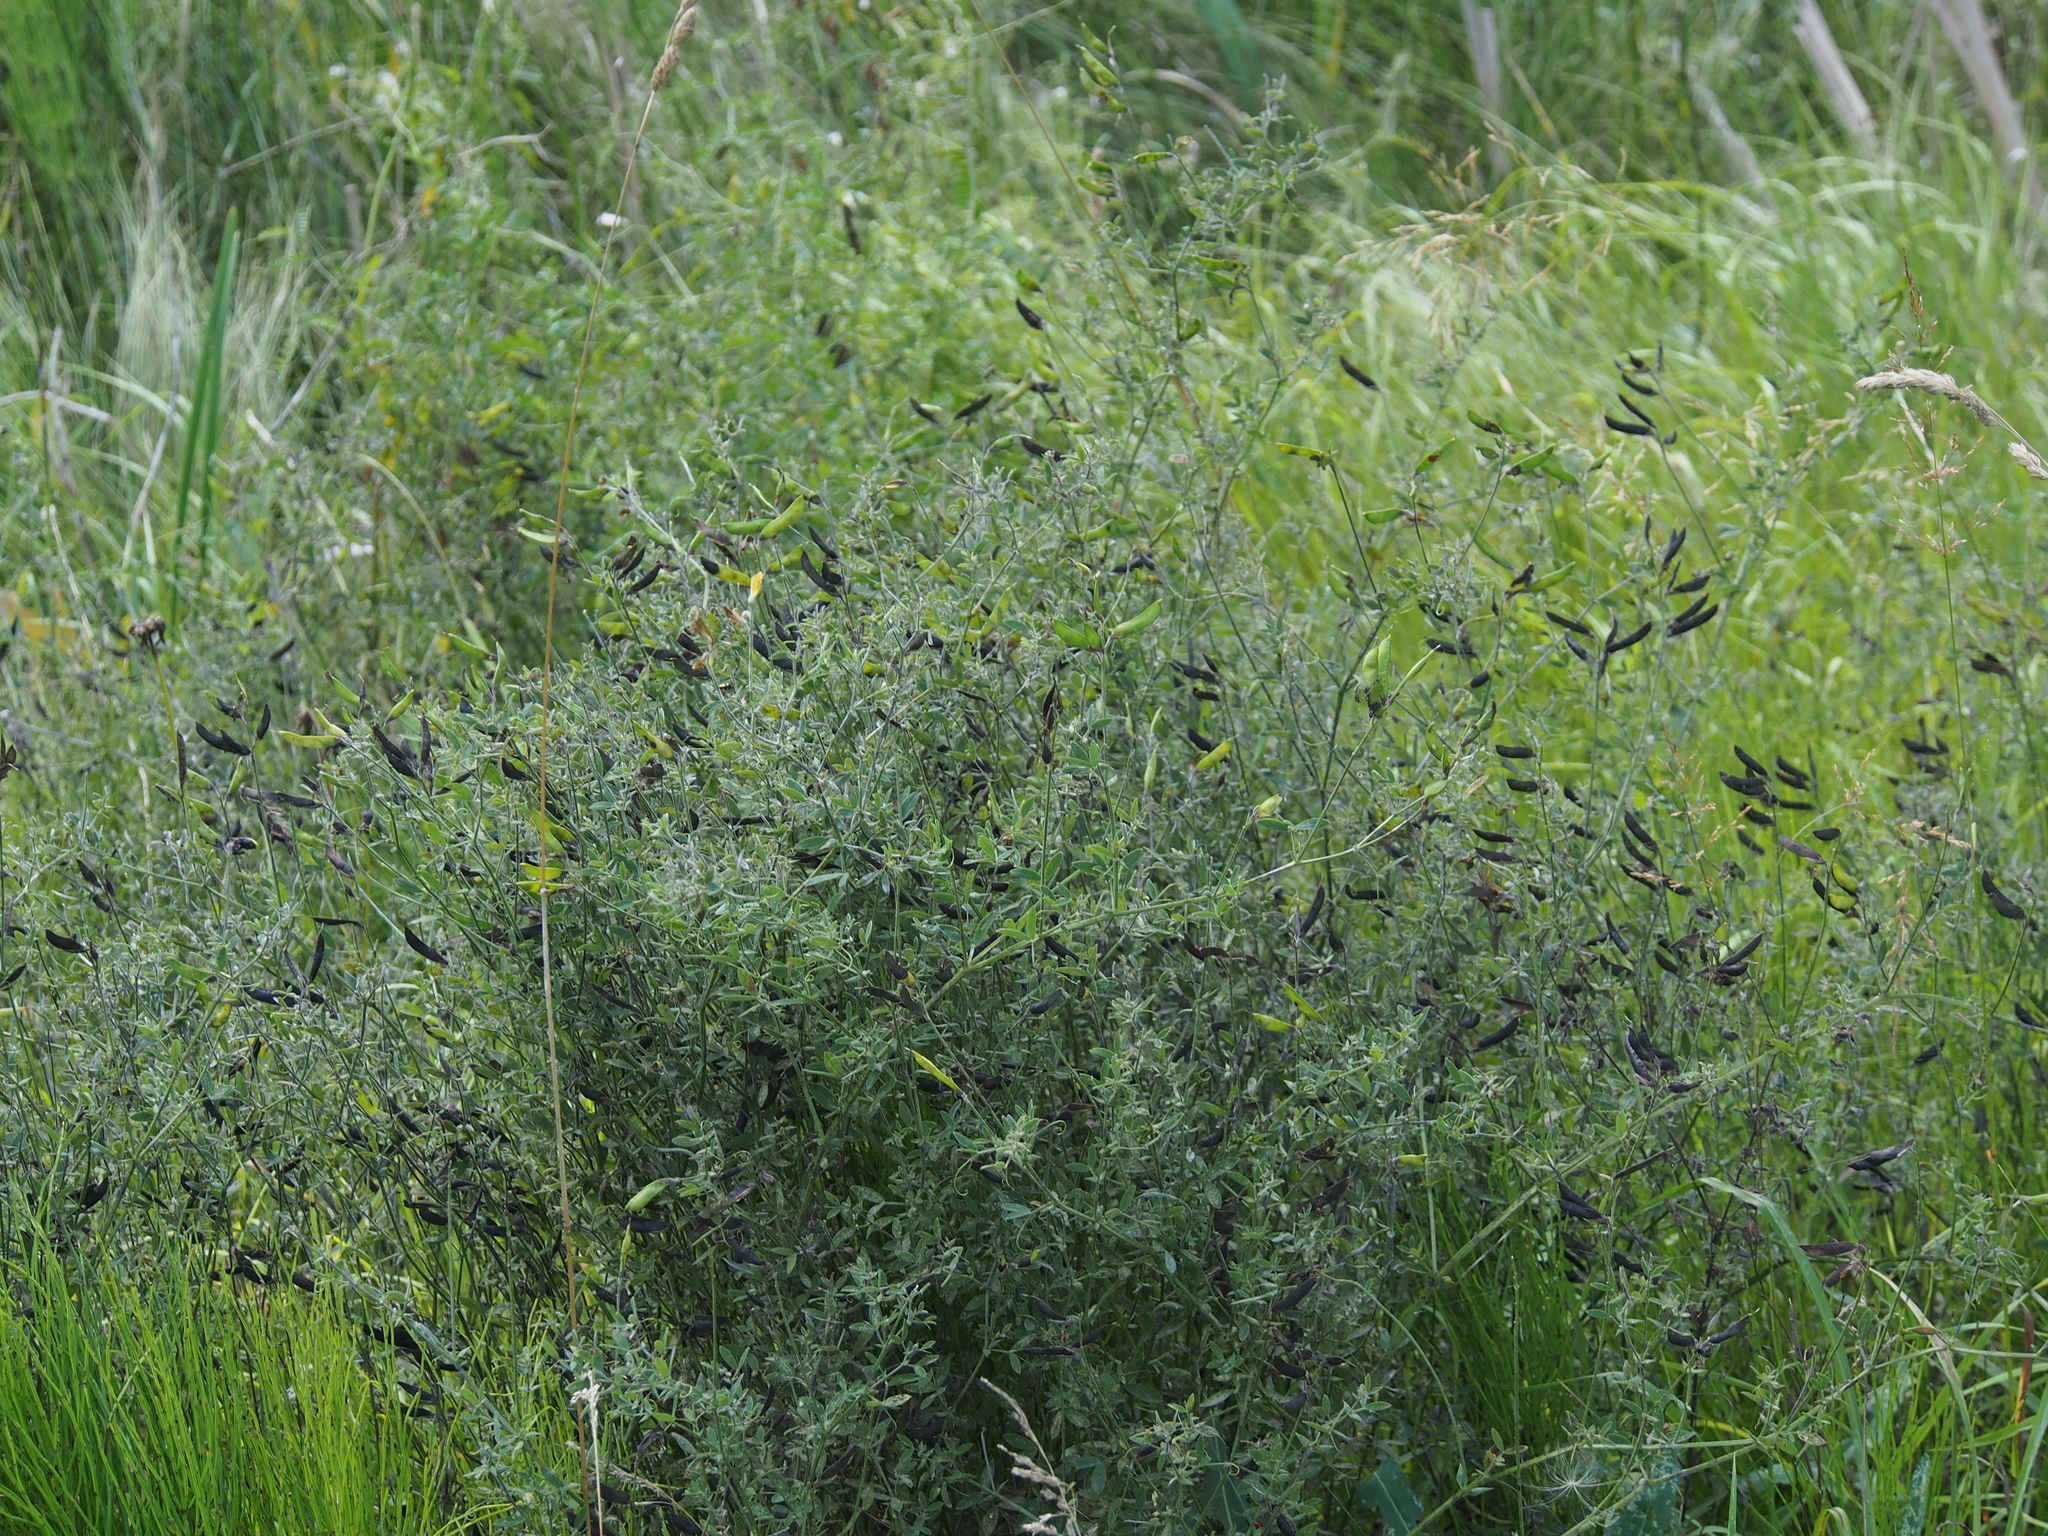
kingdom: Plantae
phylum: Tracheophyta
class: Magnoliopsida
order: Fabales
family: Fabaceae
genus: Lathyrus
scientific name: Lathyrus pratensis
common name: Meadow vetchling
